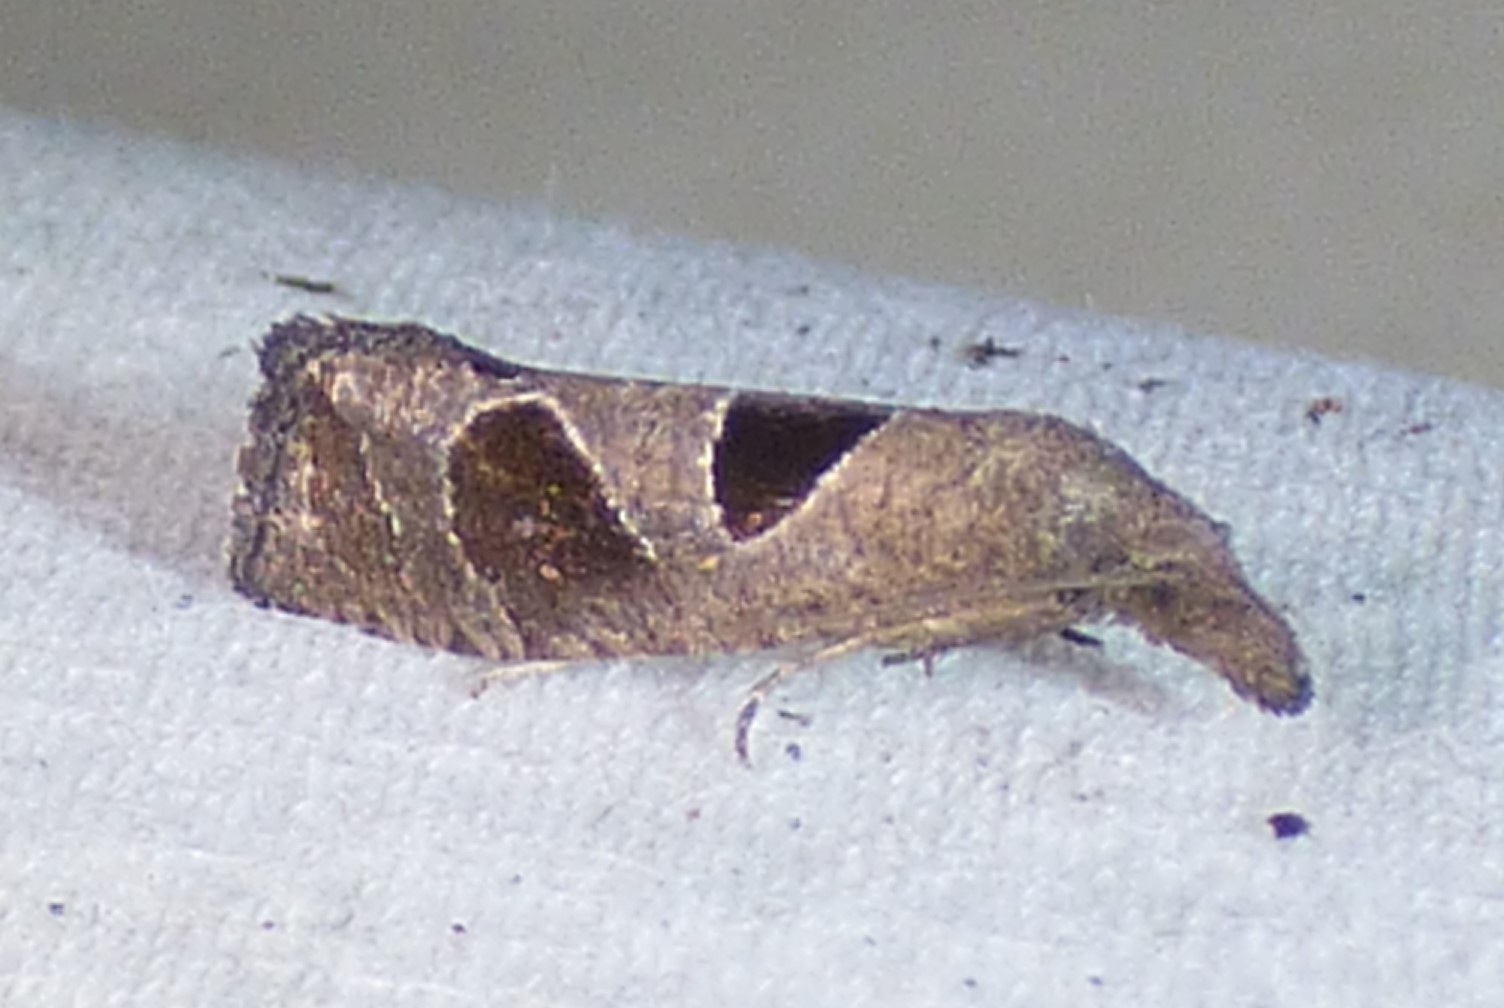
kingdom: Animalia
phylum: Arthropoda
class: Insecta
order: Lepidoptera
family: Tortricidae
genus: Pelochrista
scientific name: Pelochrista dorsisignatana
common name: Triangle-backed pelochrista moth
